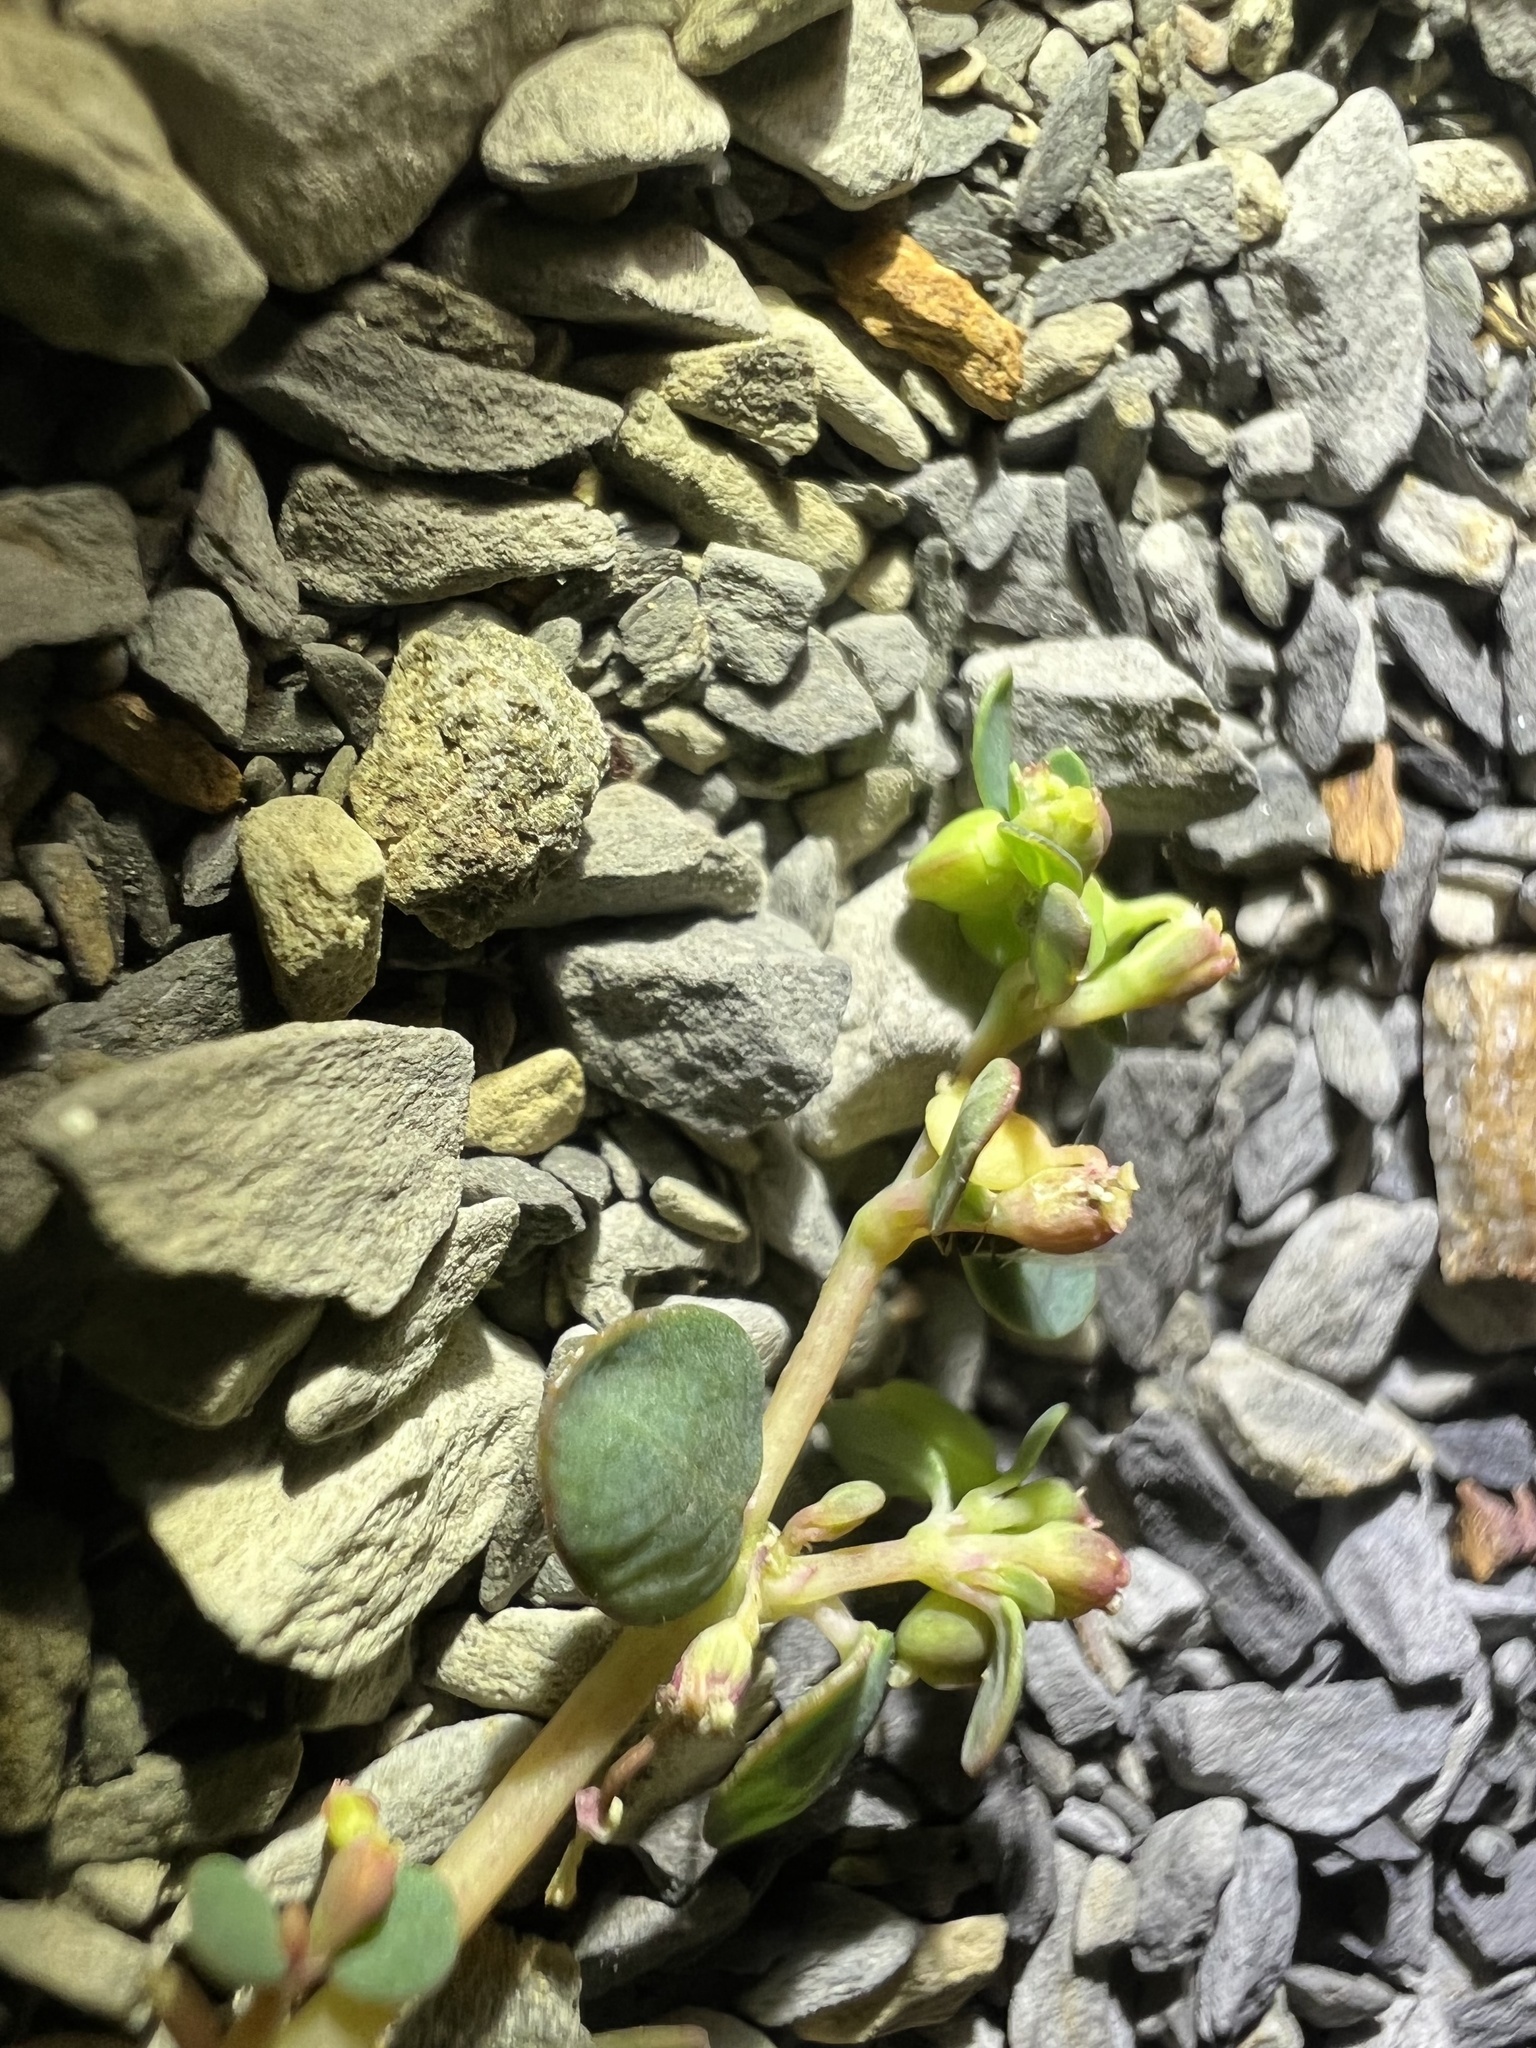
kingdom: Plantae
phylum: Tracheophyta
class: Magnoliopsida
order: Malpighiales
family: Euphorbiaceae
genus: Euphorbia
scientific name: Euphorbia cryptorubra
